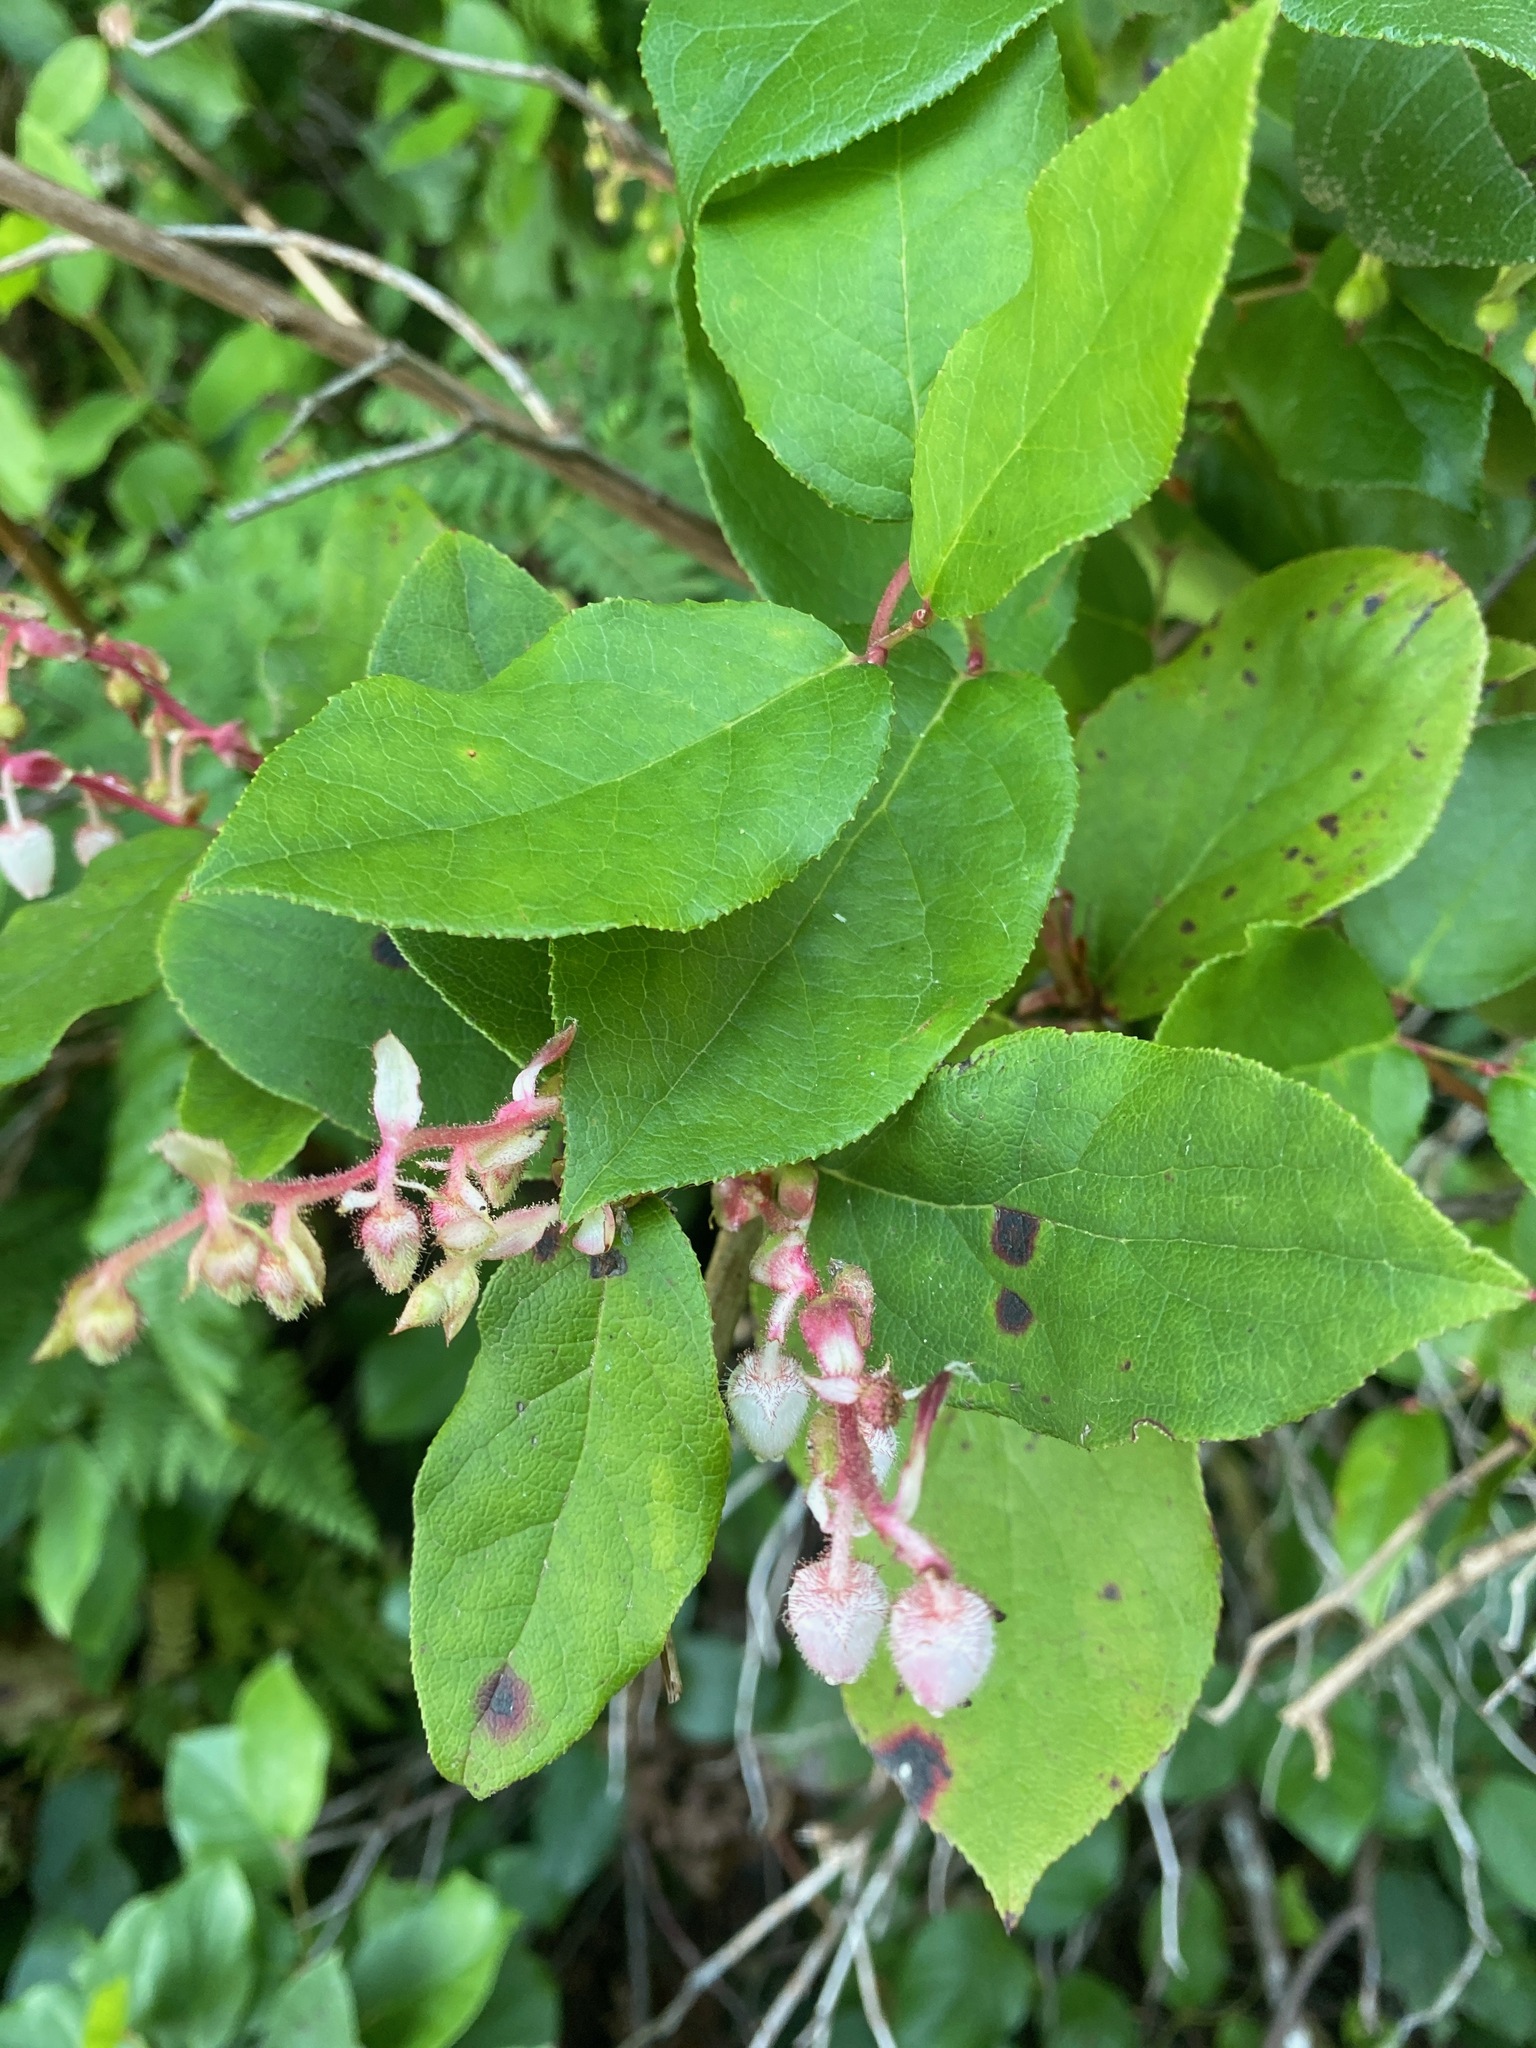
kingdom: Plantae
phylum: Tracheophyta
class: Magnoliopsida
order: Ericales
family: Ericaceae
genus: Gaultheria
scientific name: Gaultheria shallon
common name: Shallon
